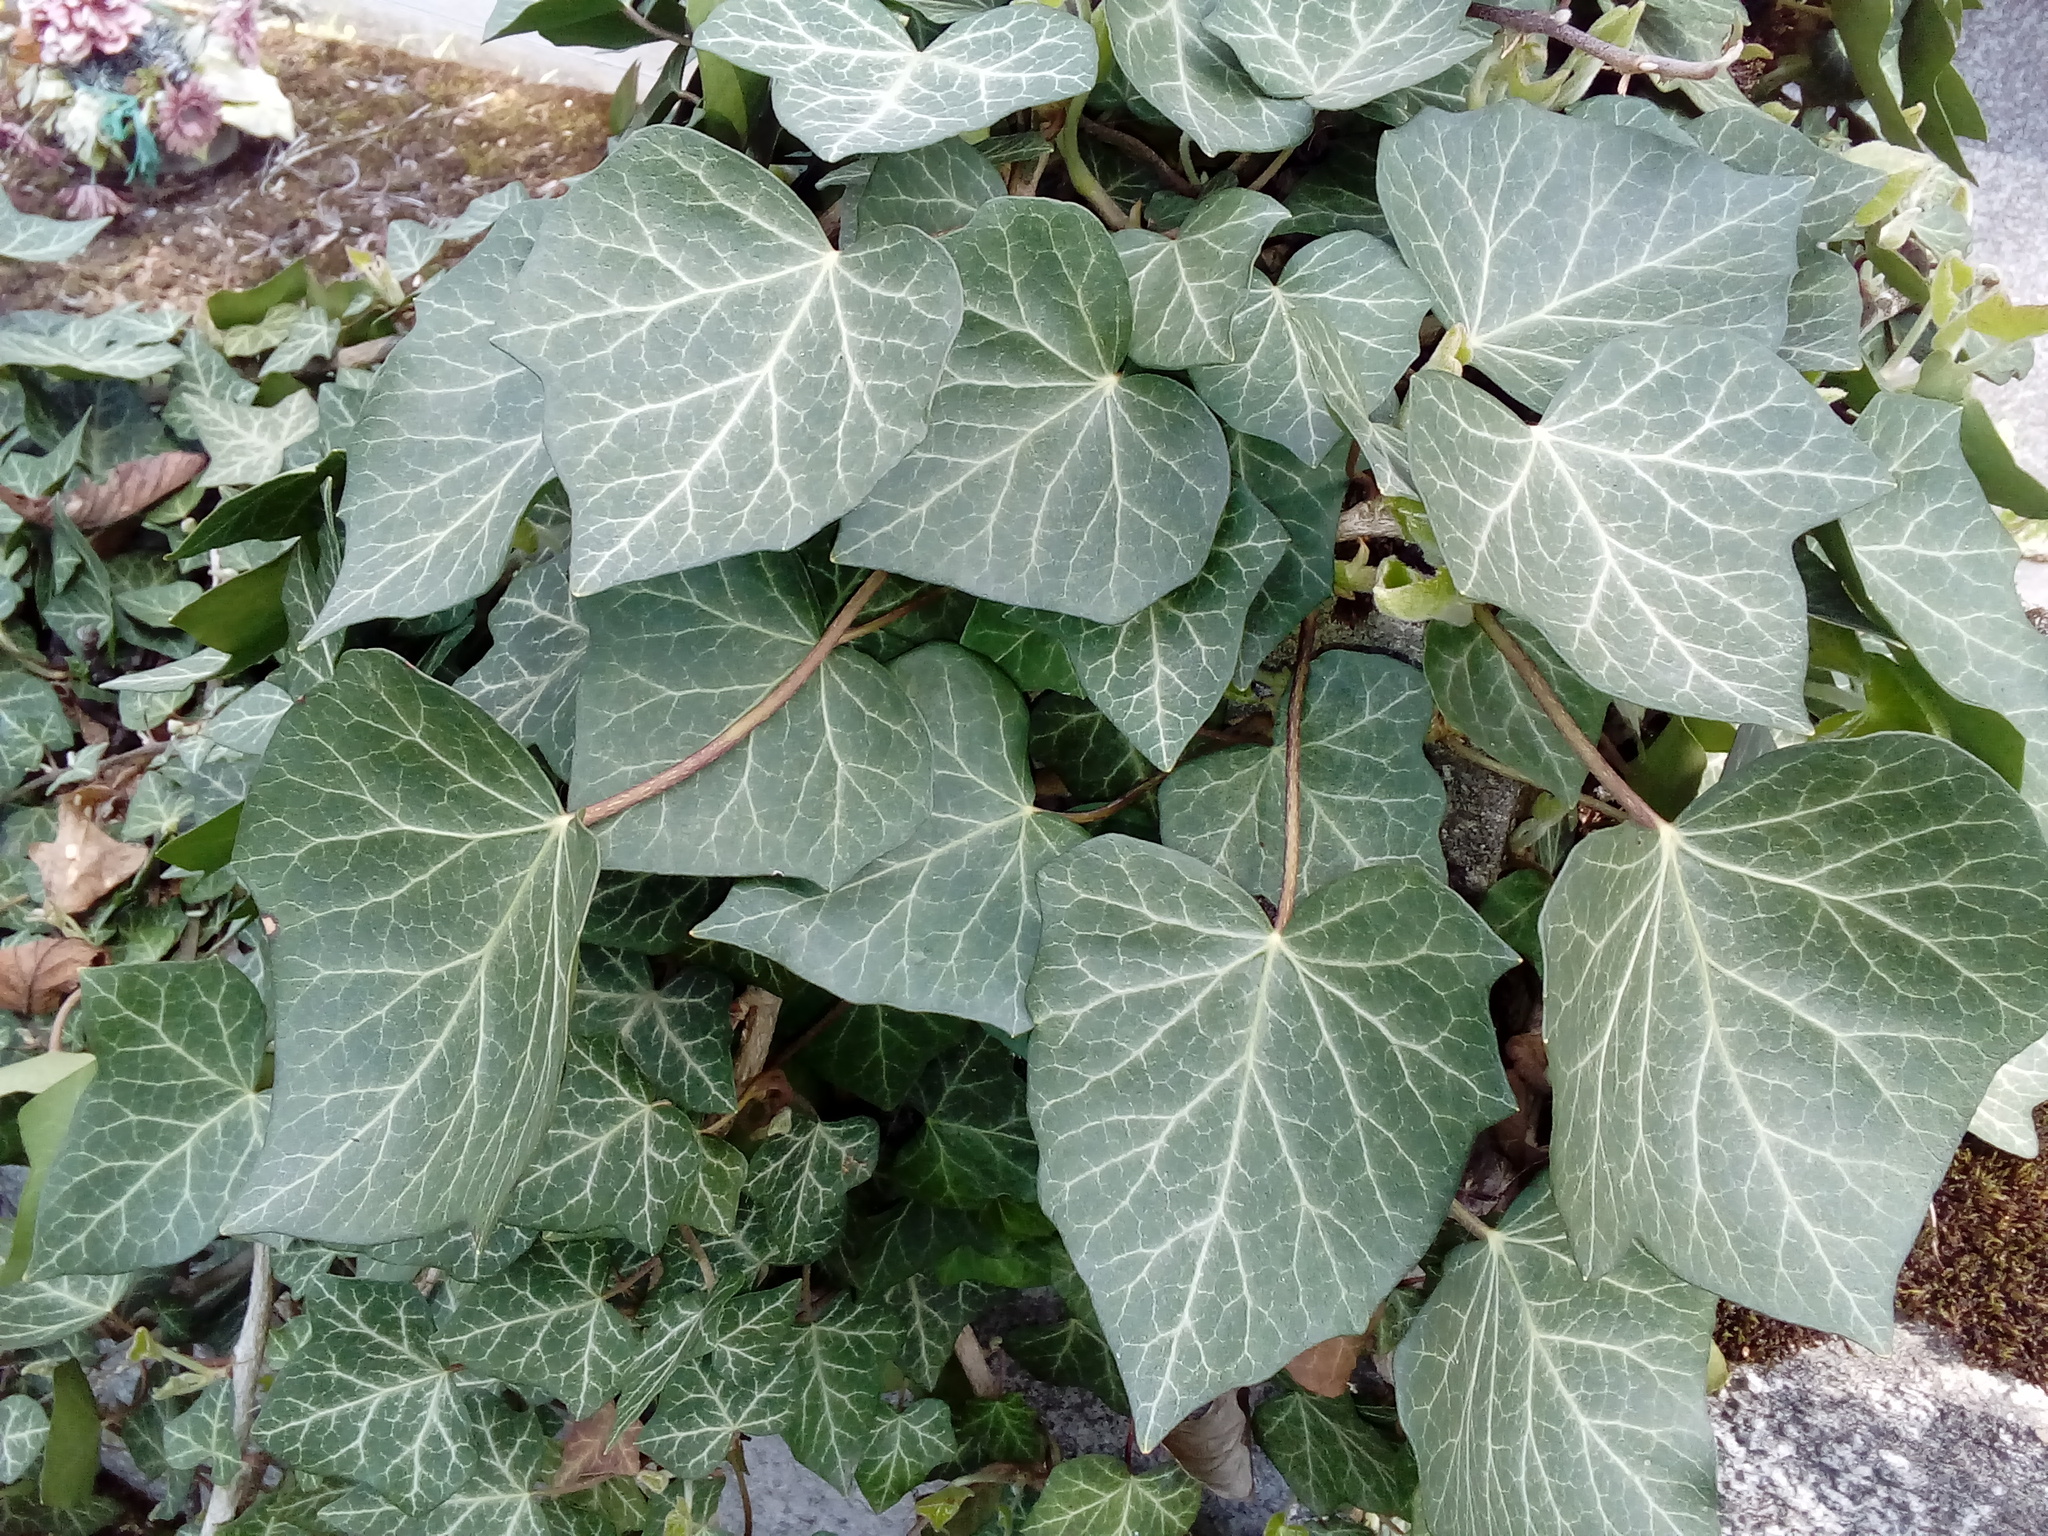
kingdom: Plantae
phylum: Tracheophyta
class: Magnoliopsida
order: Apiales
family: Araliaceae
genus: Hedera
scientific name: Hedera helix
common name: Ivy
